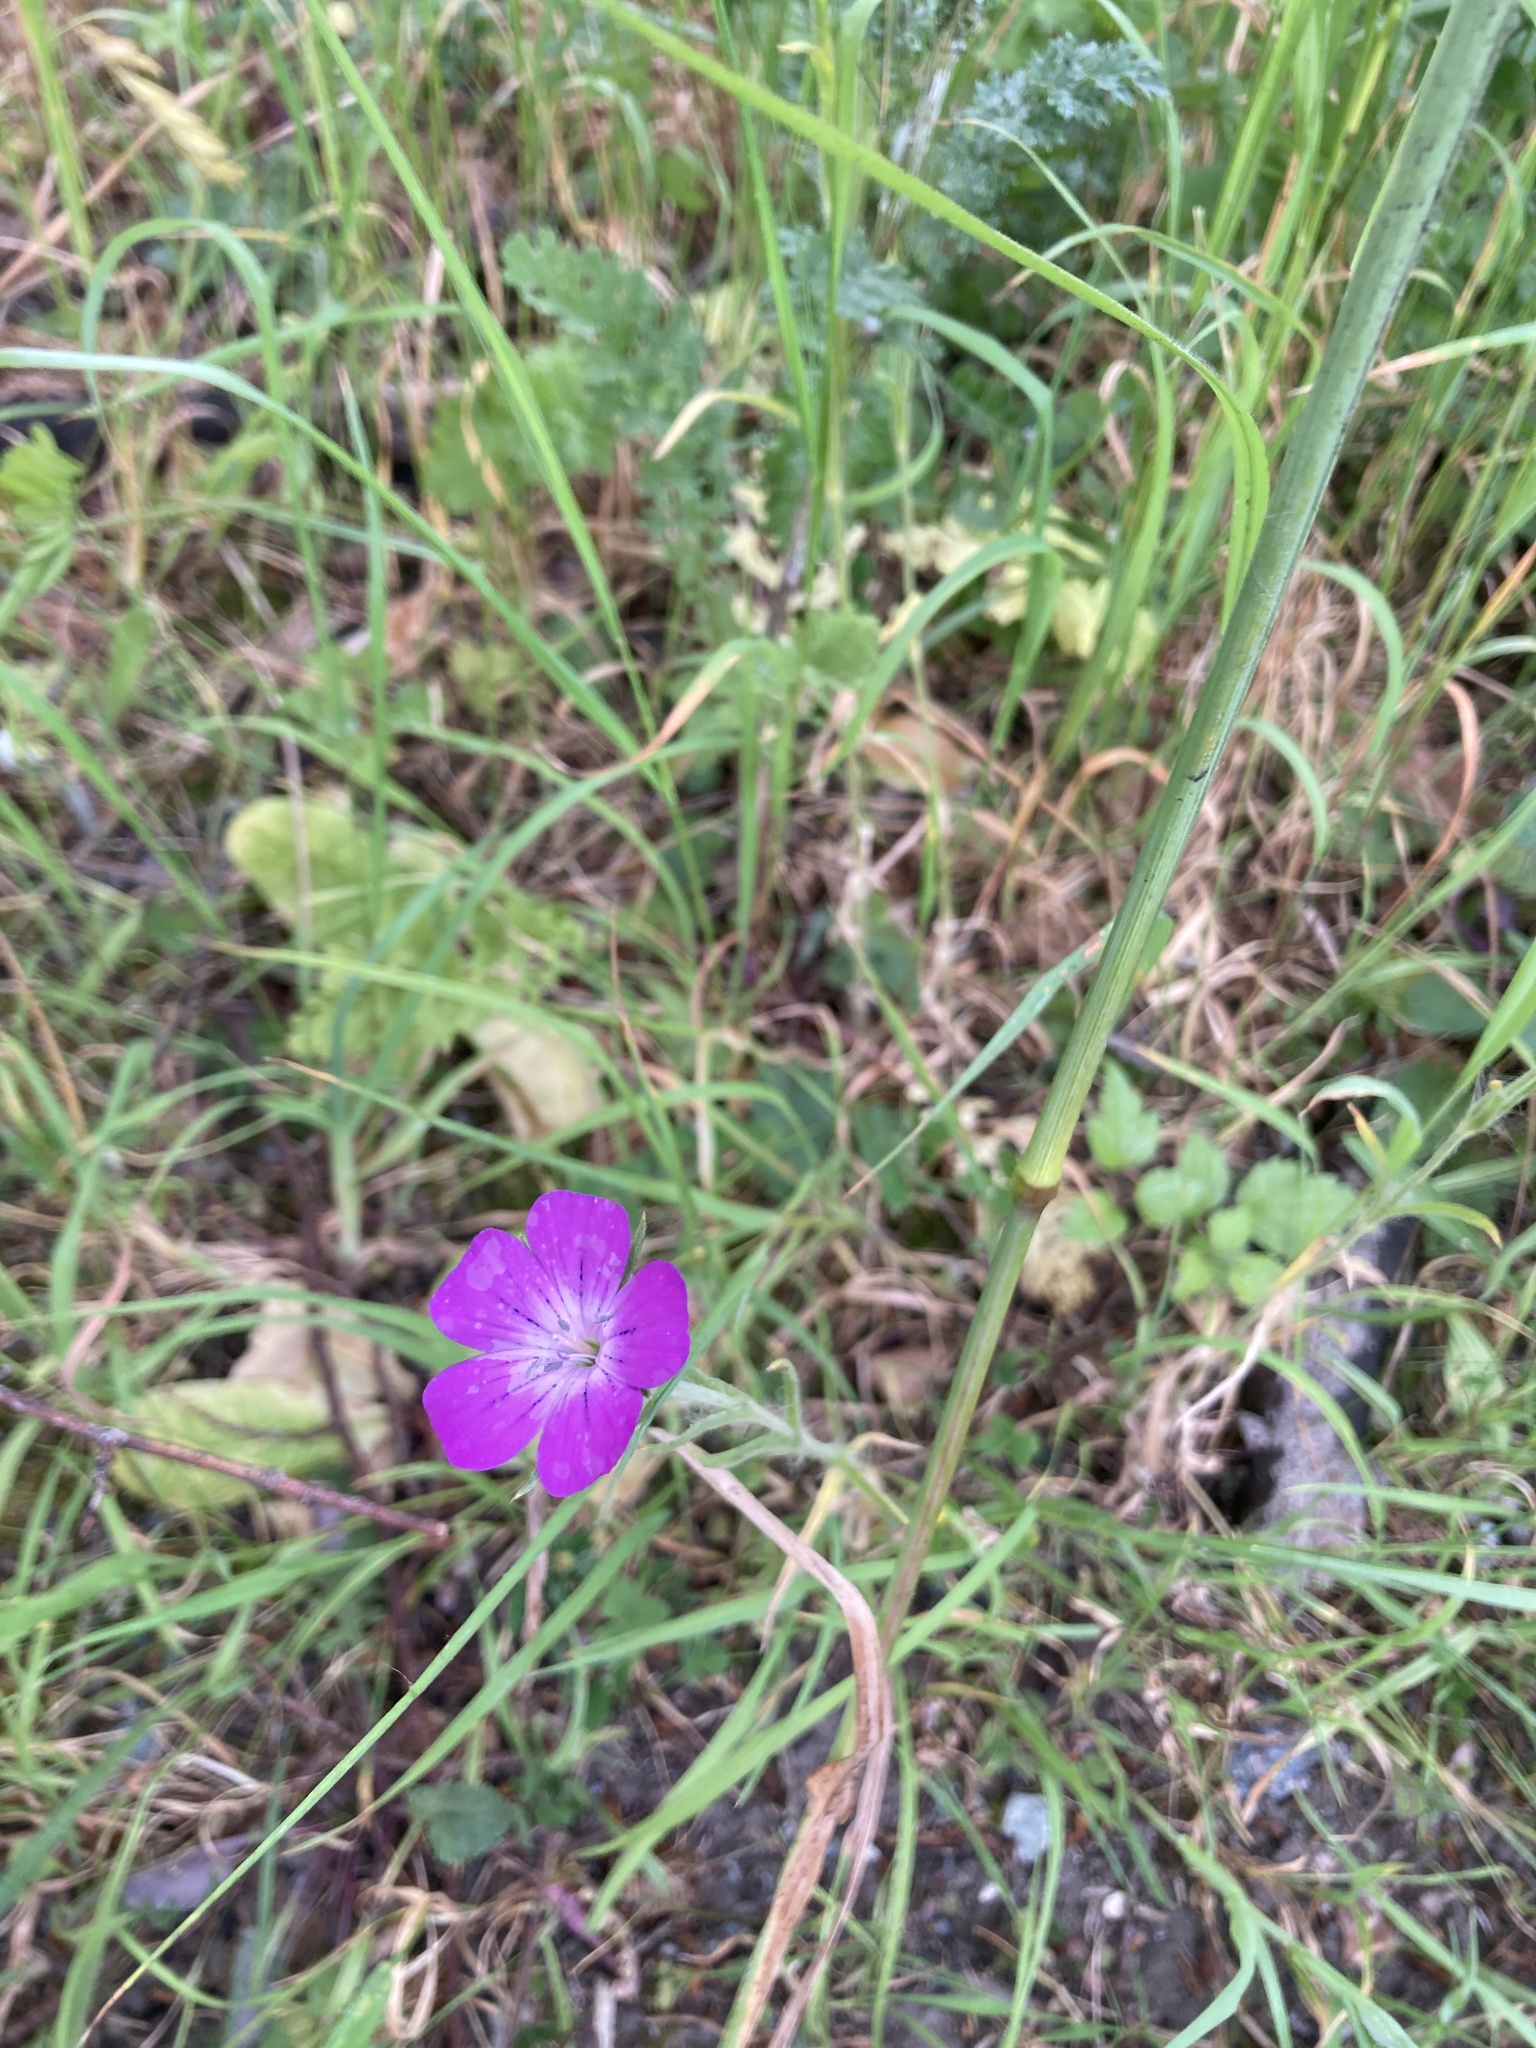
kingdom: Plantae
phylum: Tracheophyta
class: Magnoliopsida
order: Caryophyllales
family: Caryophyllaceae
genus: Agrostemma
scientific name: Agrostemma githago
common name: Common corncockle
